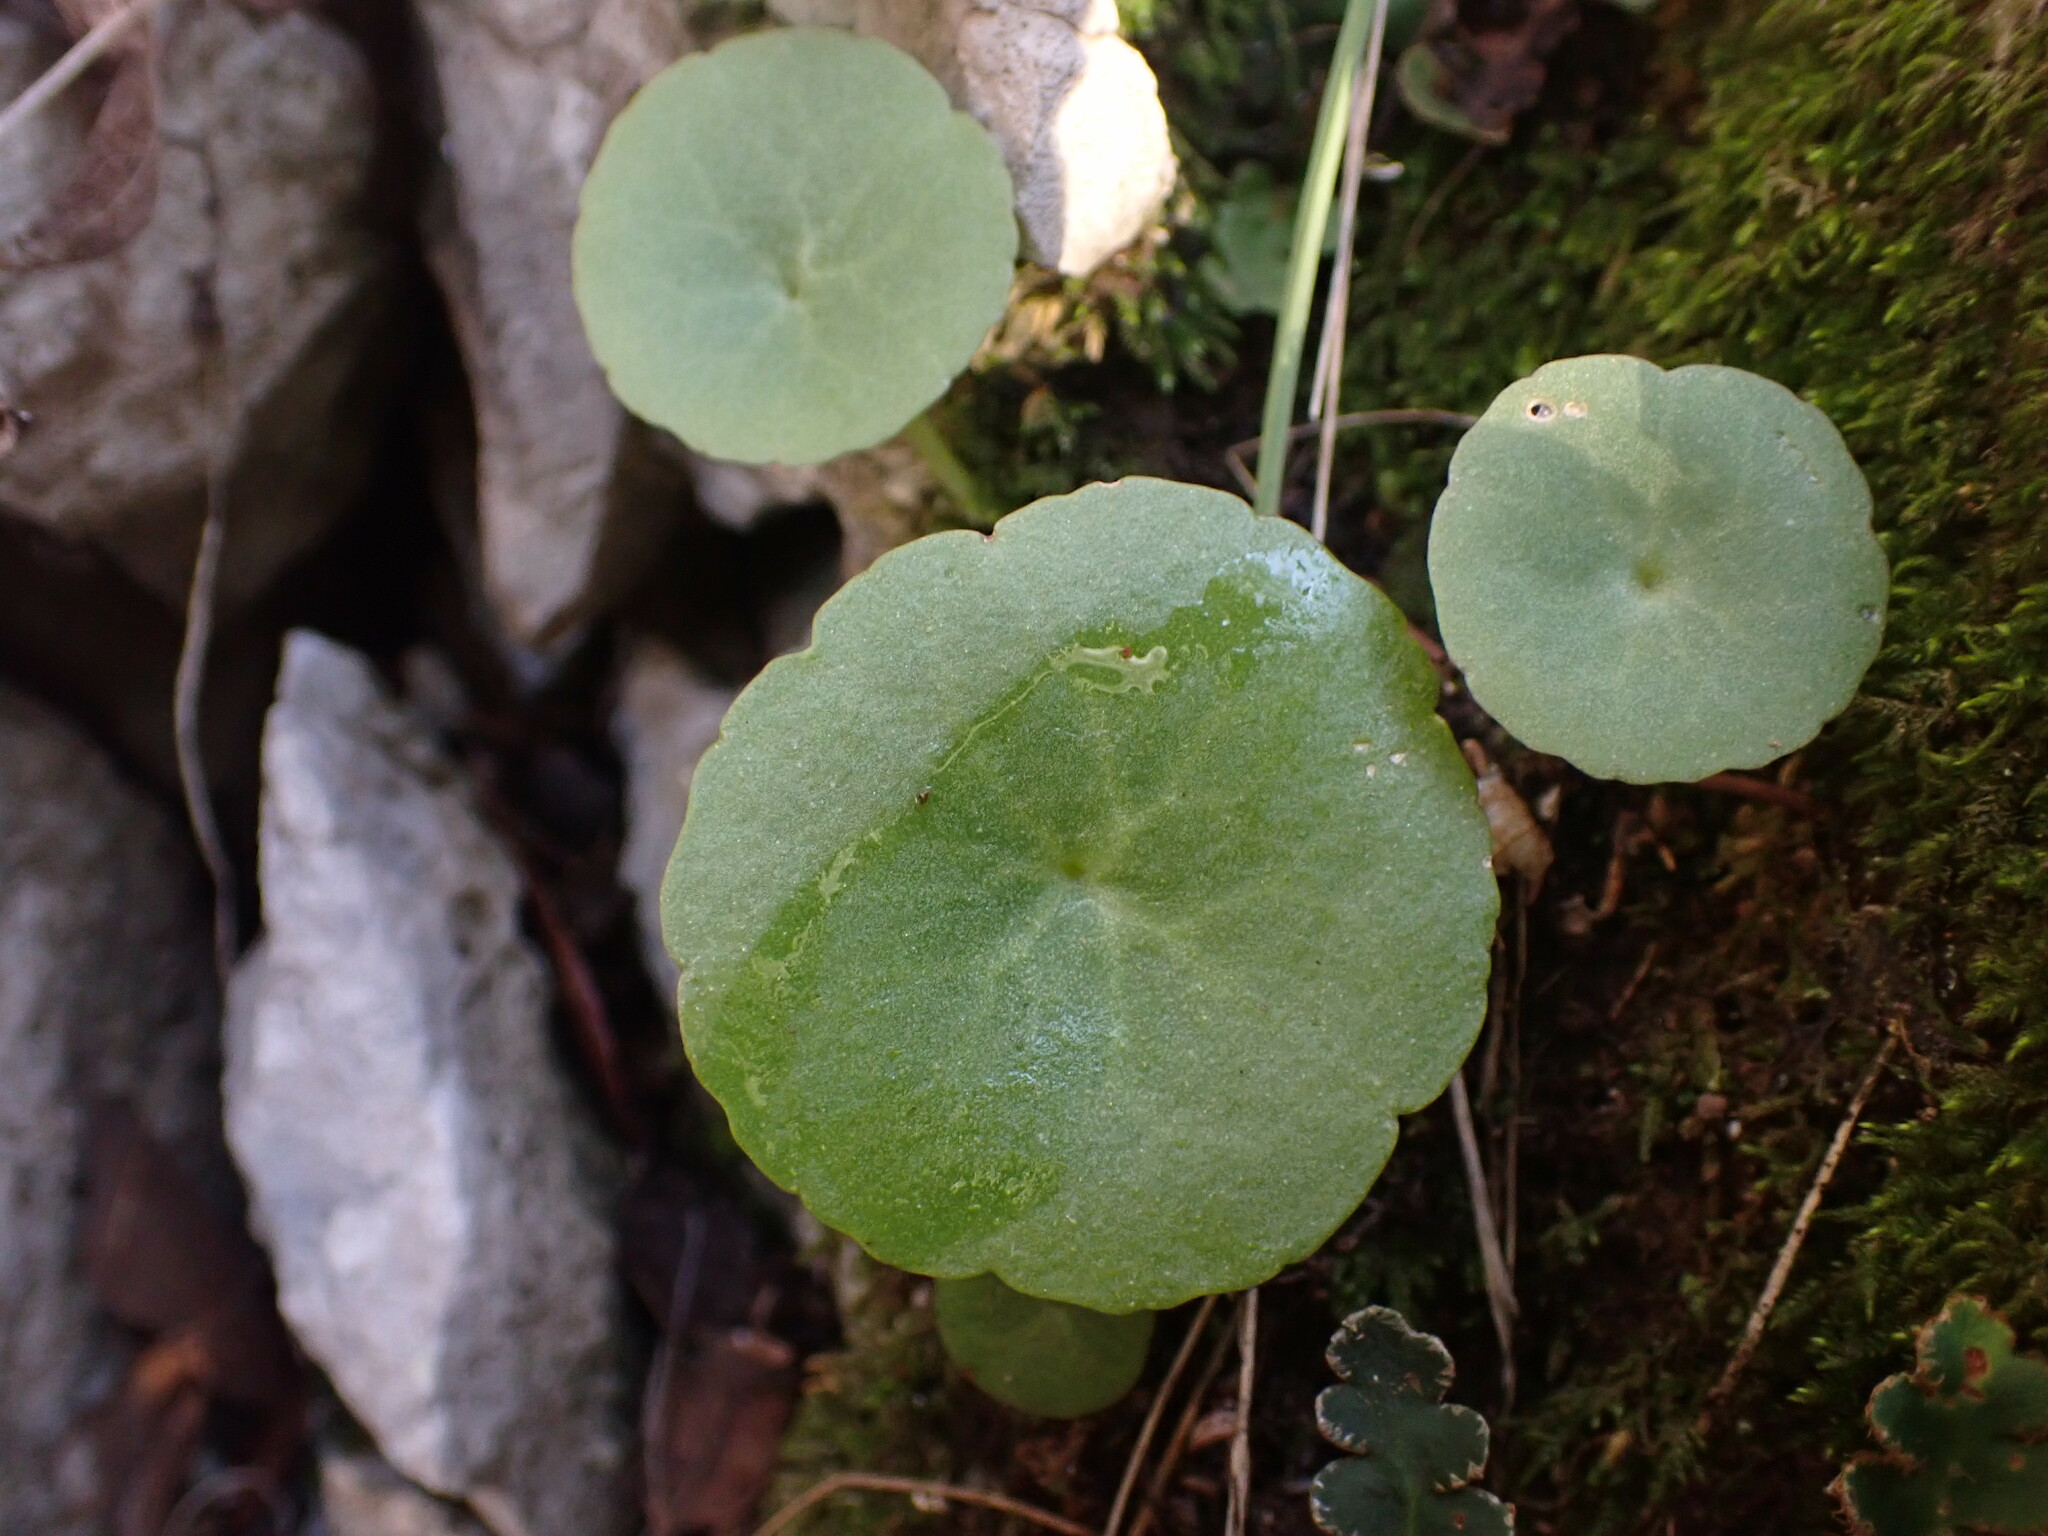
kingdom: Plantae
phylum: Tracheophyta
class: Magnoliopsida
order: Saxifragales
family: Crassulaceae
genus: Umbilicus
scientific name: Umbilicus rupestris
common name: Navelwort
